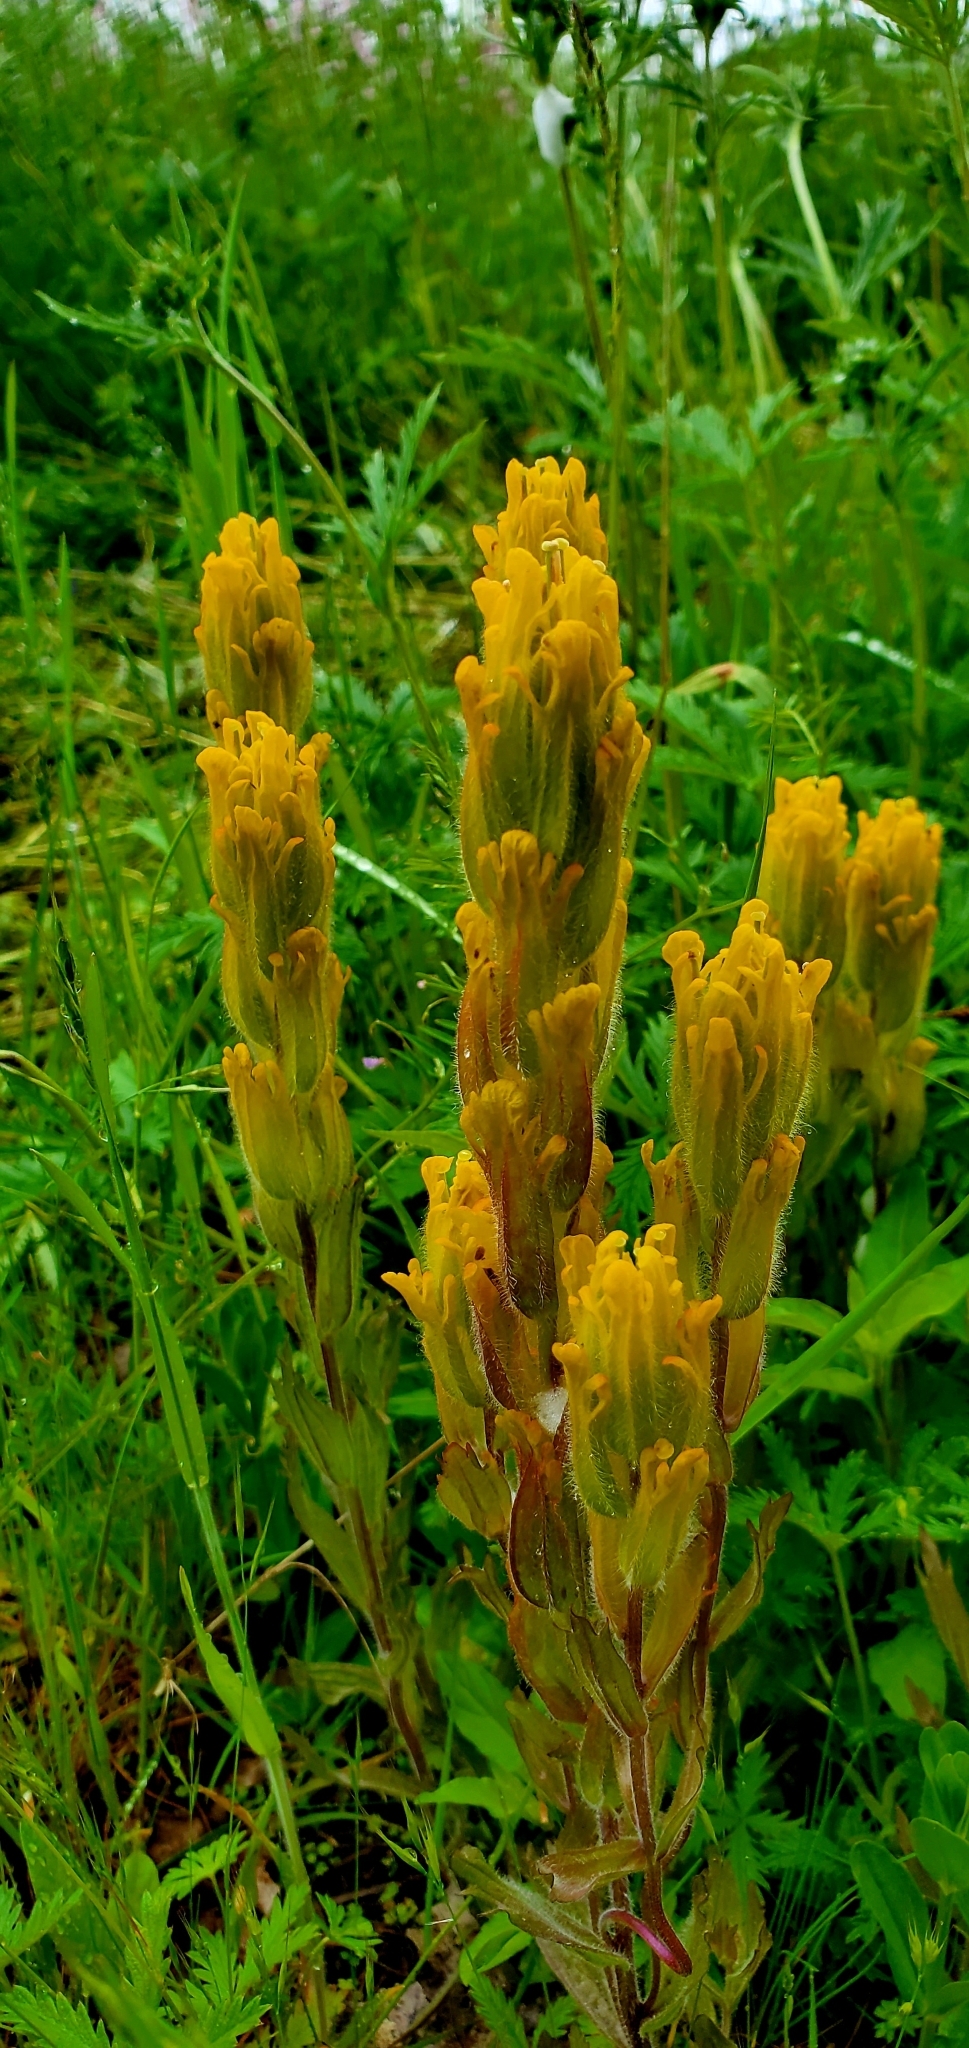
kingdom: Plantae
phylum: Tracheophyta
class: Magnoliopsida
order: Lamiales
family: Orobanchaceae
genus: Castilleja
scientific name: Castilleja levisecta
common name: Golden paintbrush
